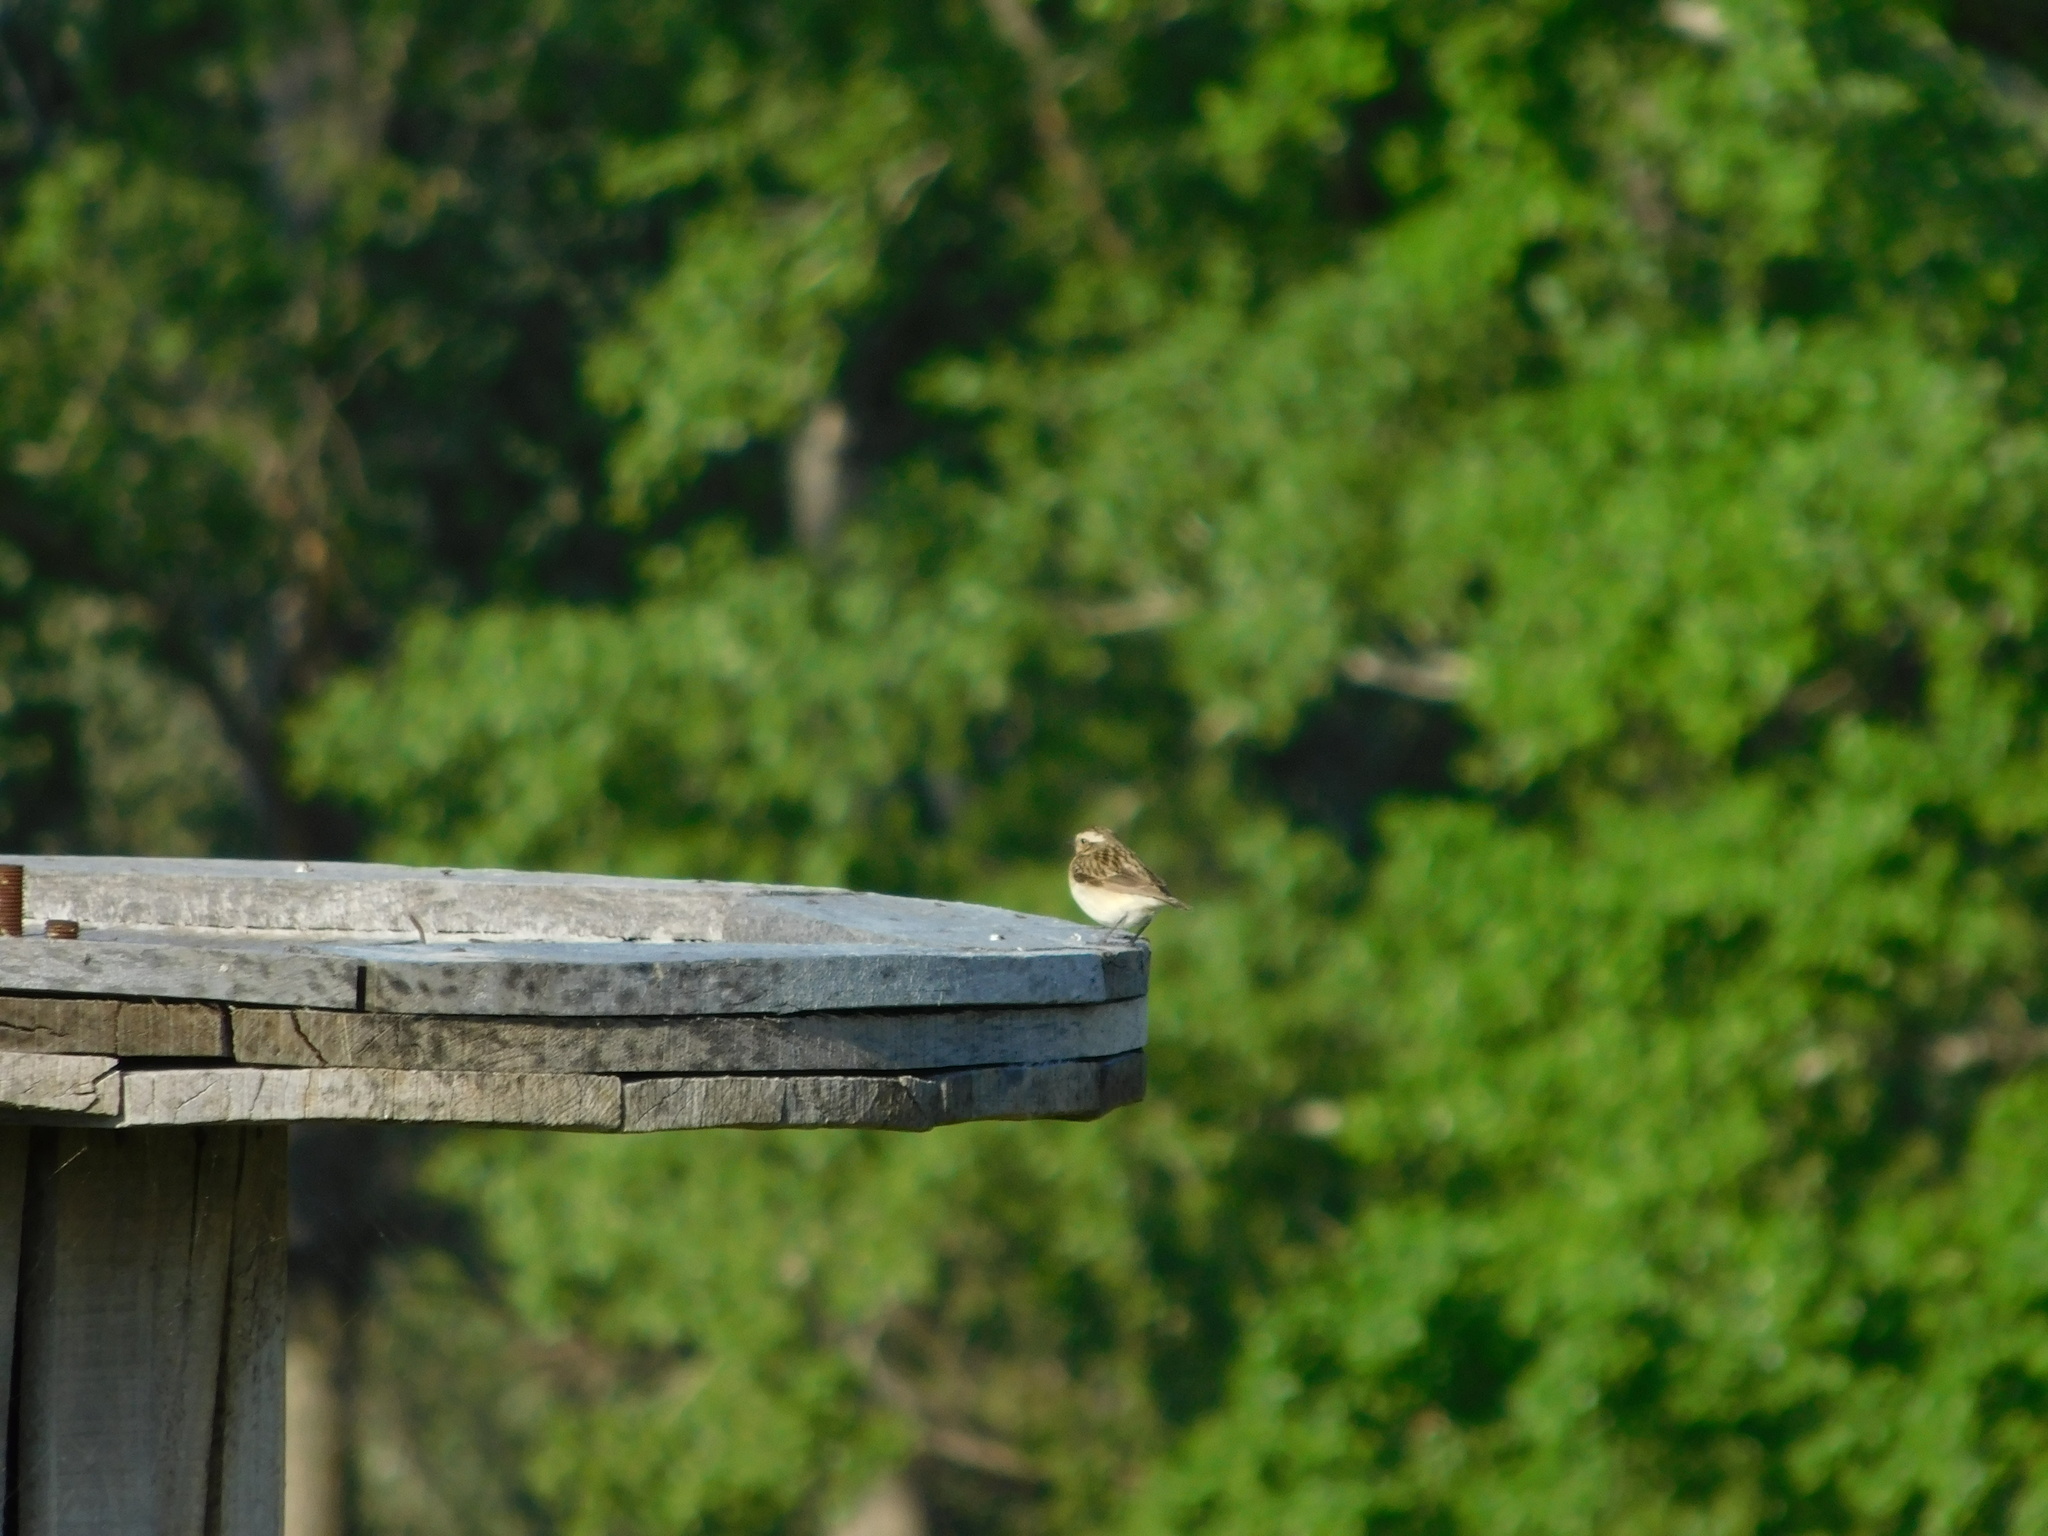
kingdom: Animalia
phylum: Chordata
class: Aves
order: Passeriformes
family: Muscicapidae
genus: Saxicola
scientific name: Saxicola rubetra
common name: Whinchat
